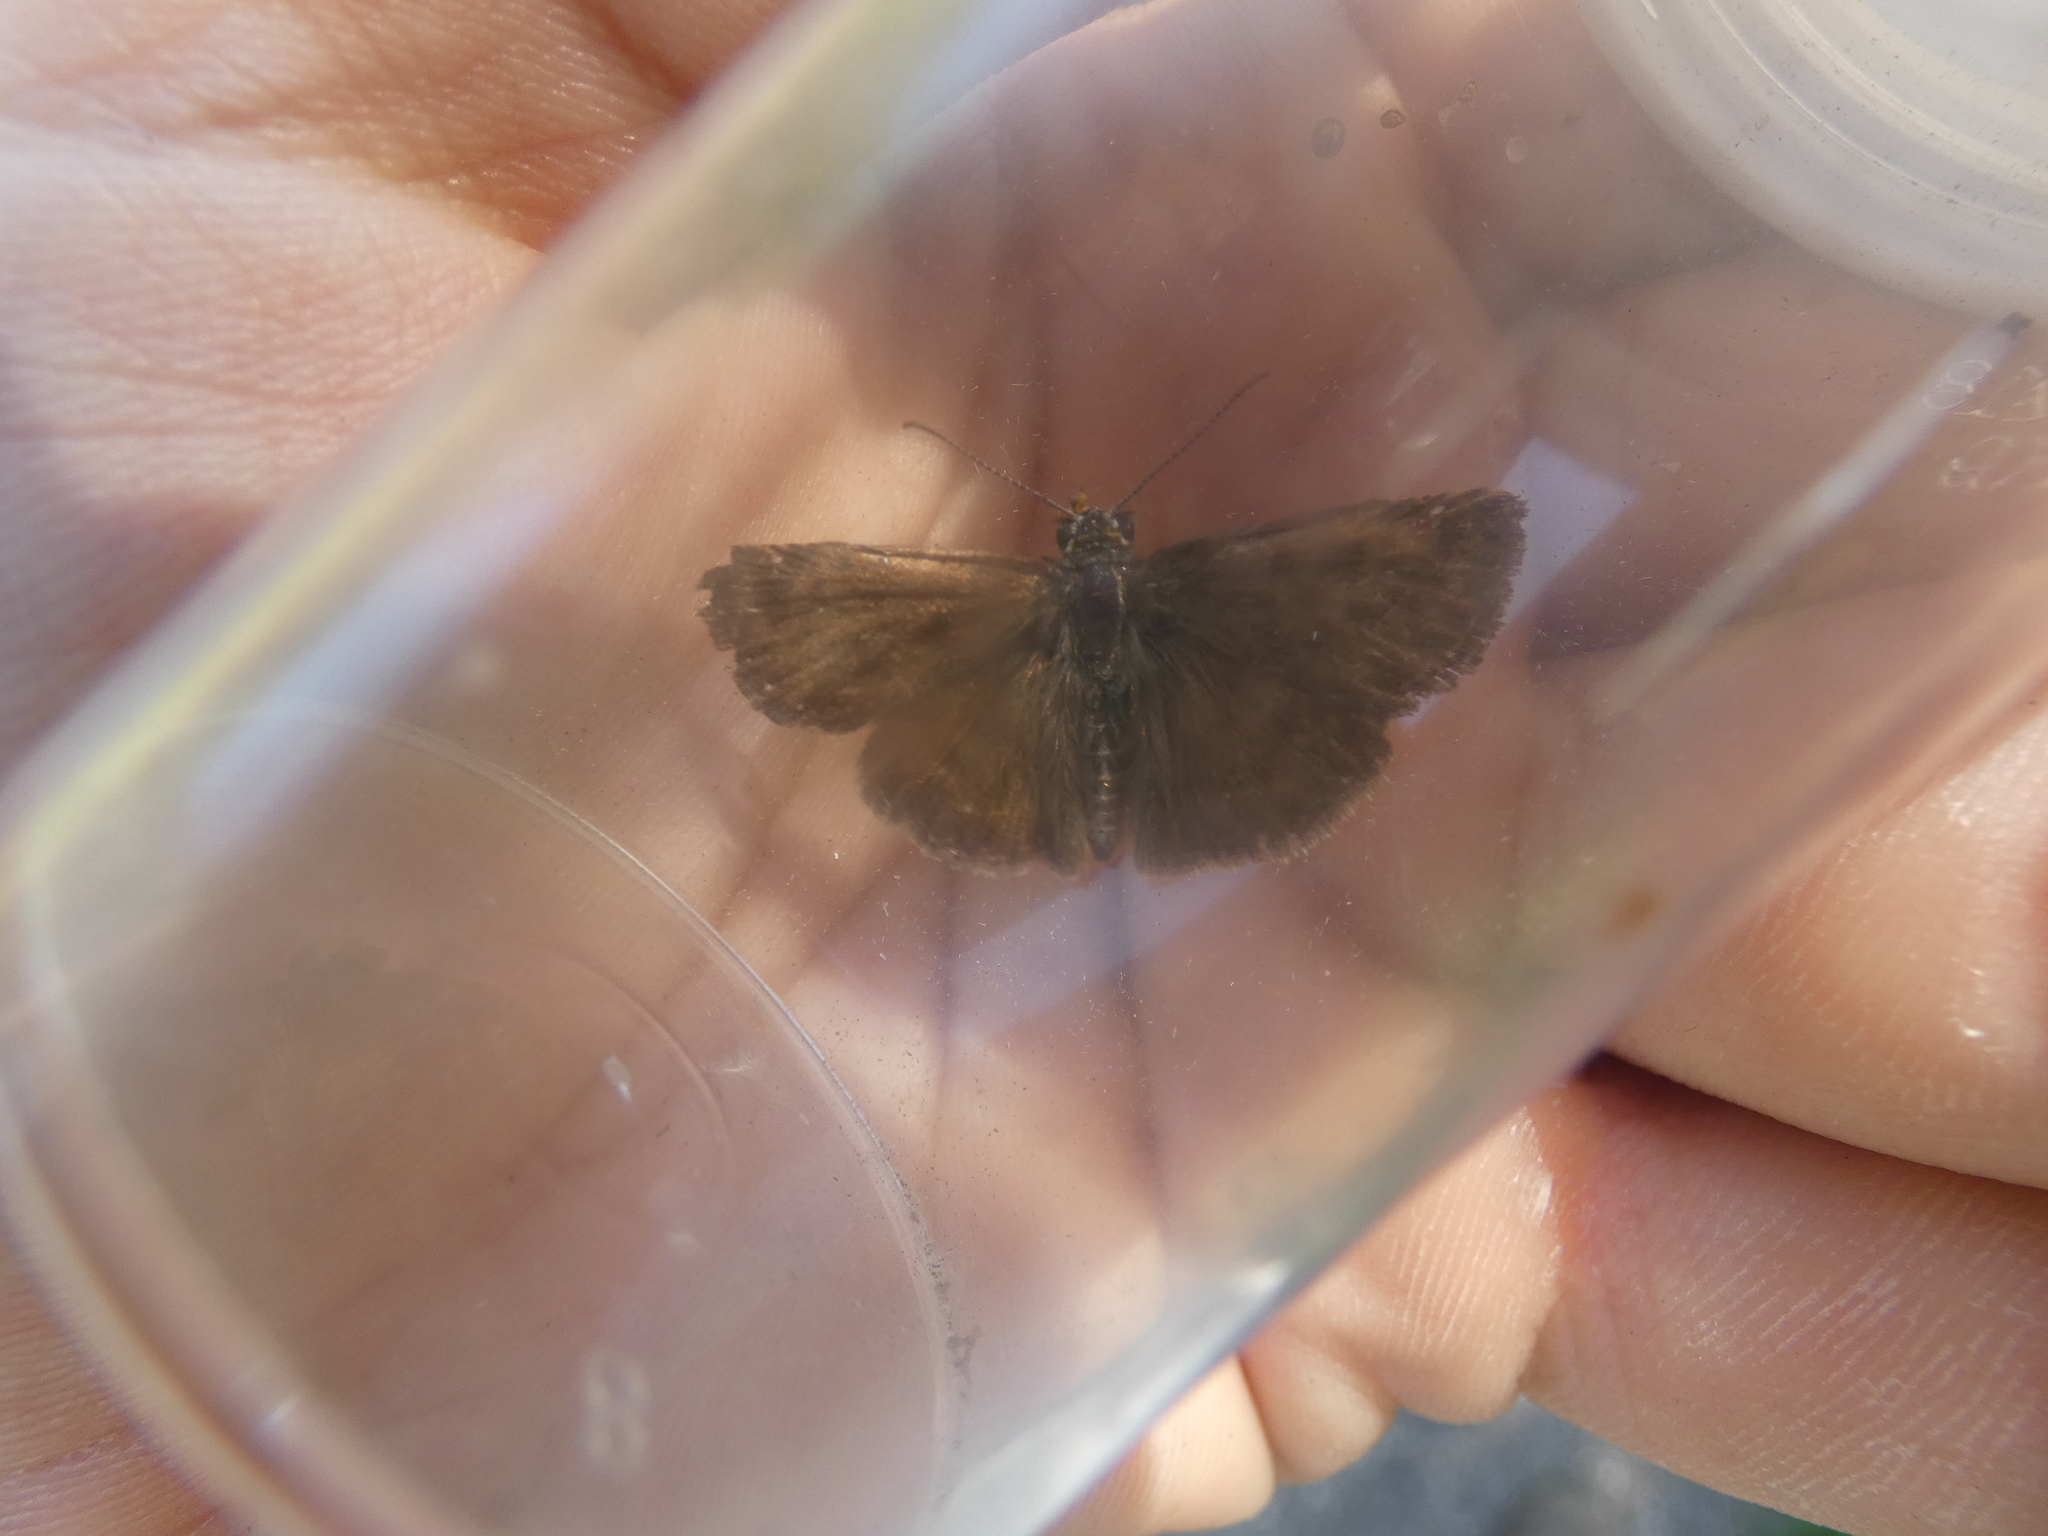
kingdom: Animalia
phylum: Arthropoda
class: Insecta
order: Lepidoptera
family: Hesperiidae
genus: Erynnis
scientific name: Erynnis tages
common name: Dingy skipper
